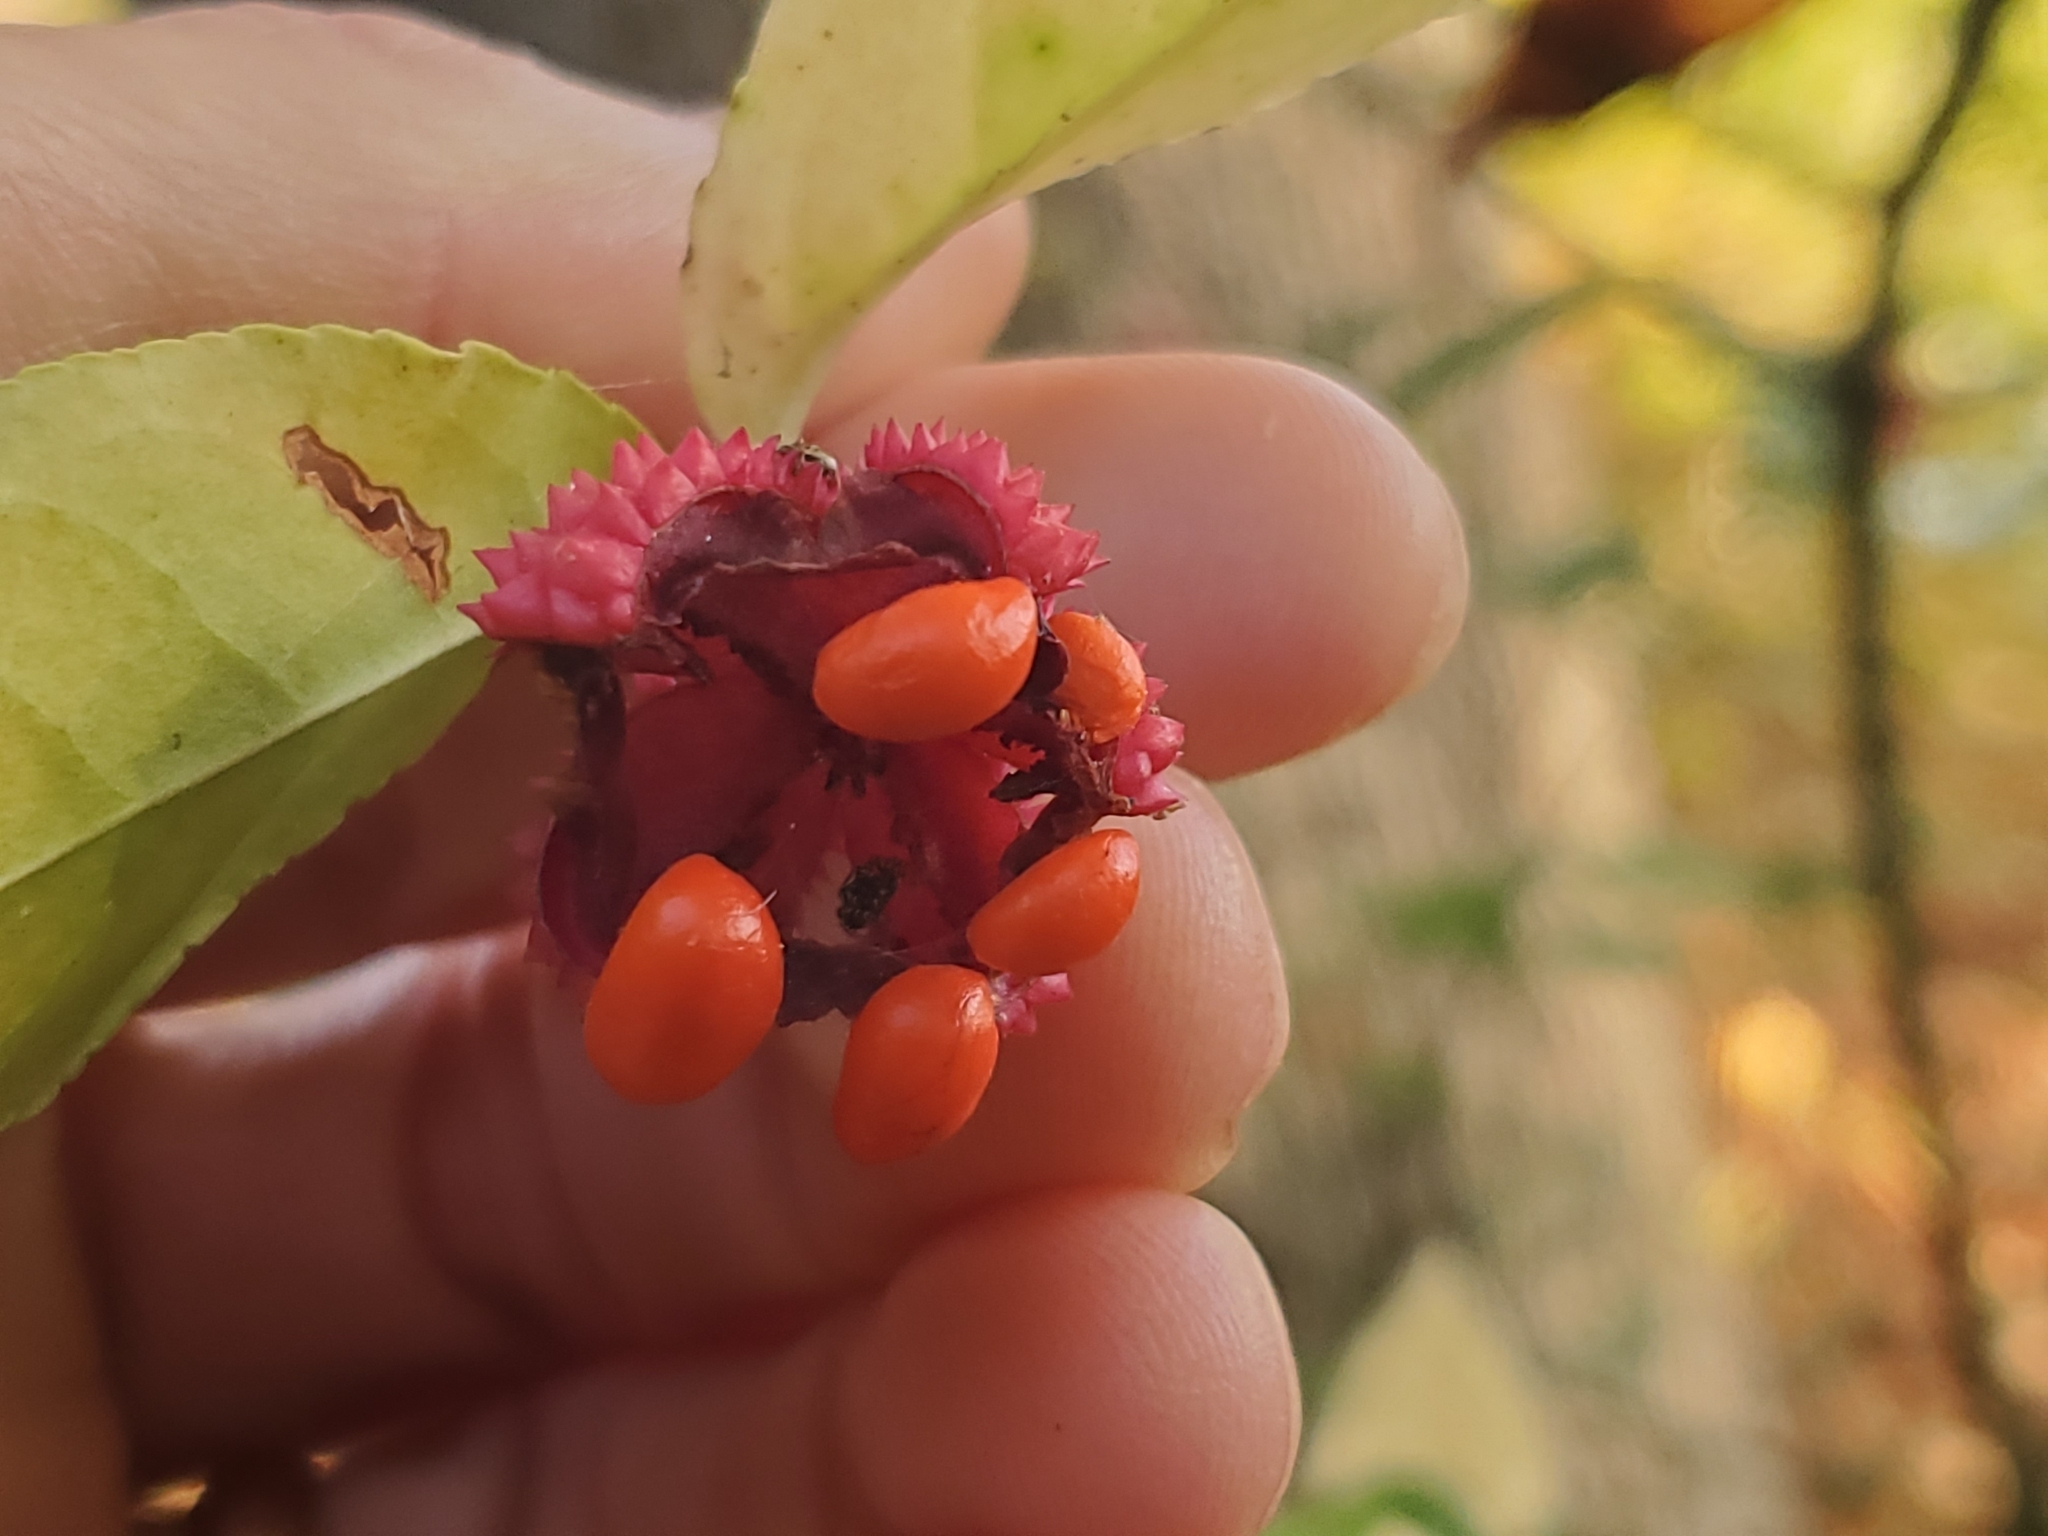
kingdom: Plantae
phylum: Tracheophyta
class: Magnoliopsida
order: Celastrales
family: Celastraceae
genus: Euonymus
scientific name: Euonymus americanus
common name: Bursting-heart
